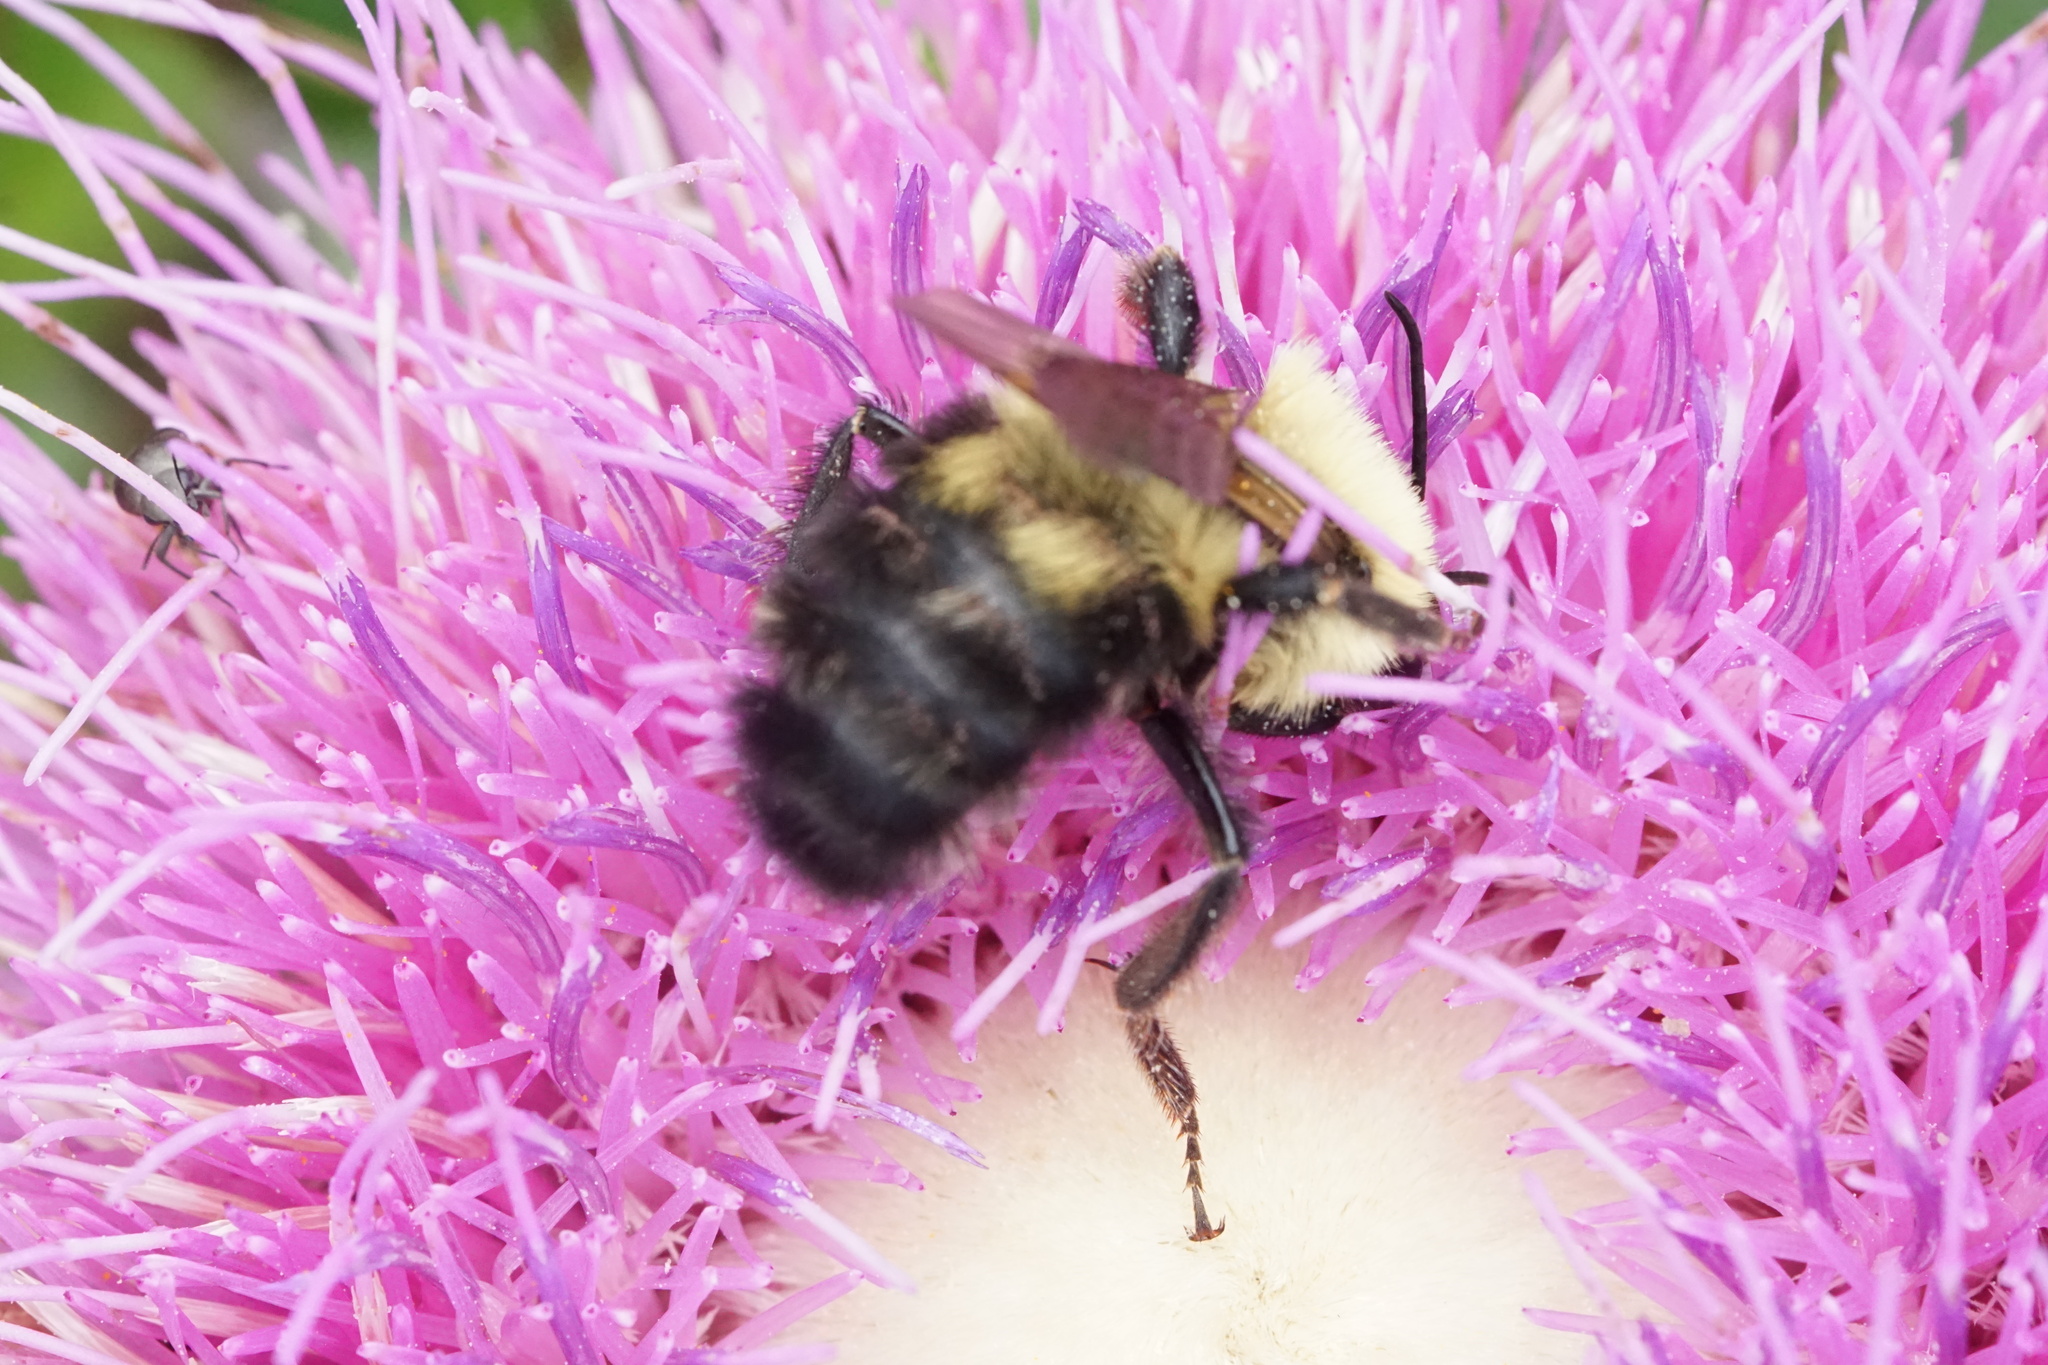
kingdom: Animalia
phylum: Arthropoda
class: Insecta
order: Hymenoptera
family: Apidae
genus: Bombus
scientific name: Bombus bimaculatus
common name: Two-spotted bumble bee
